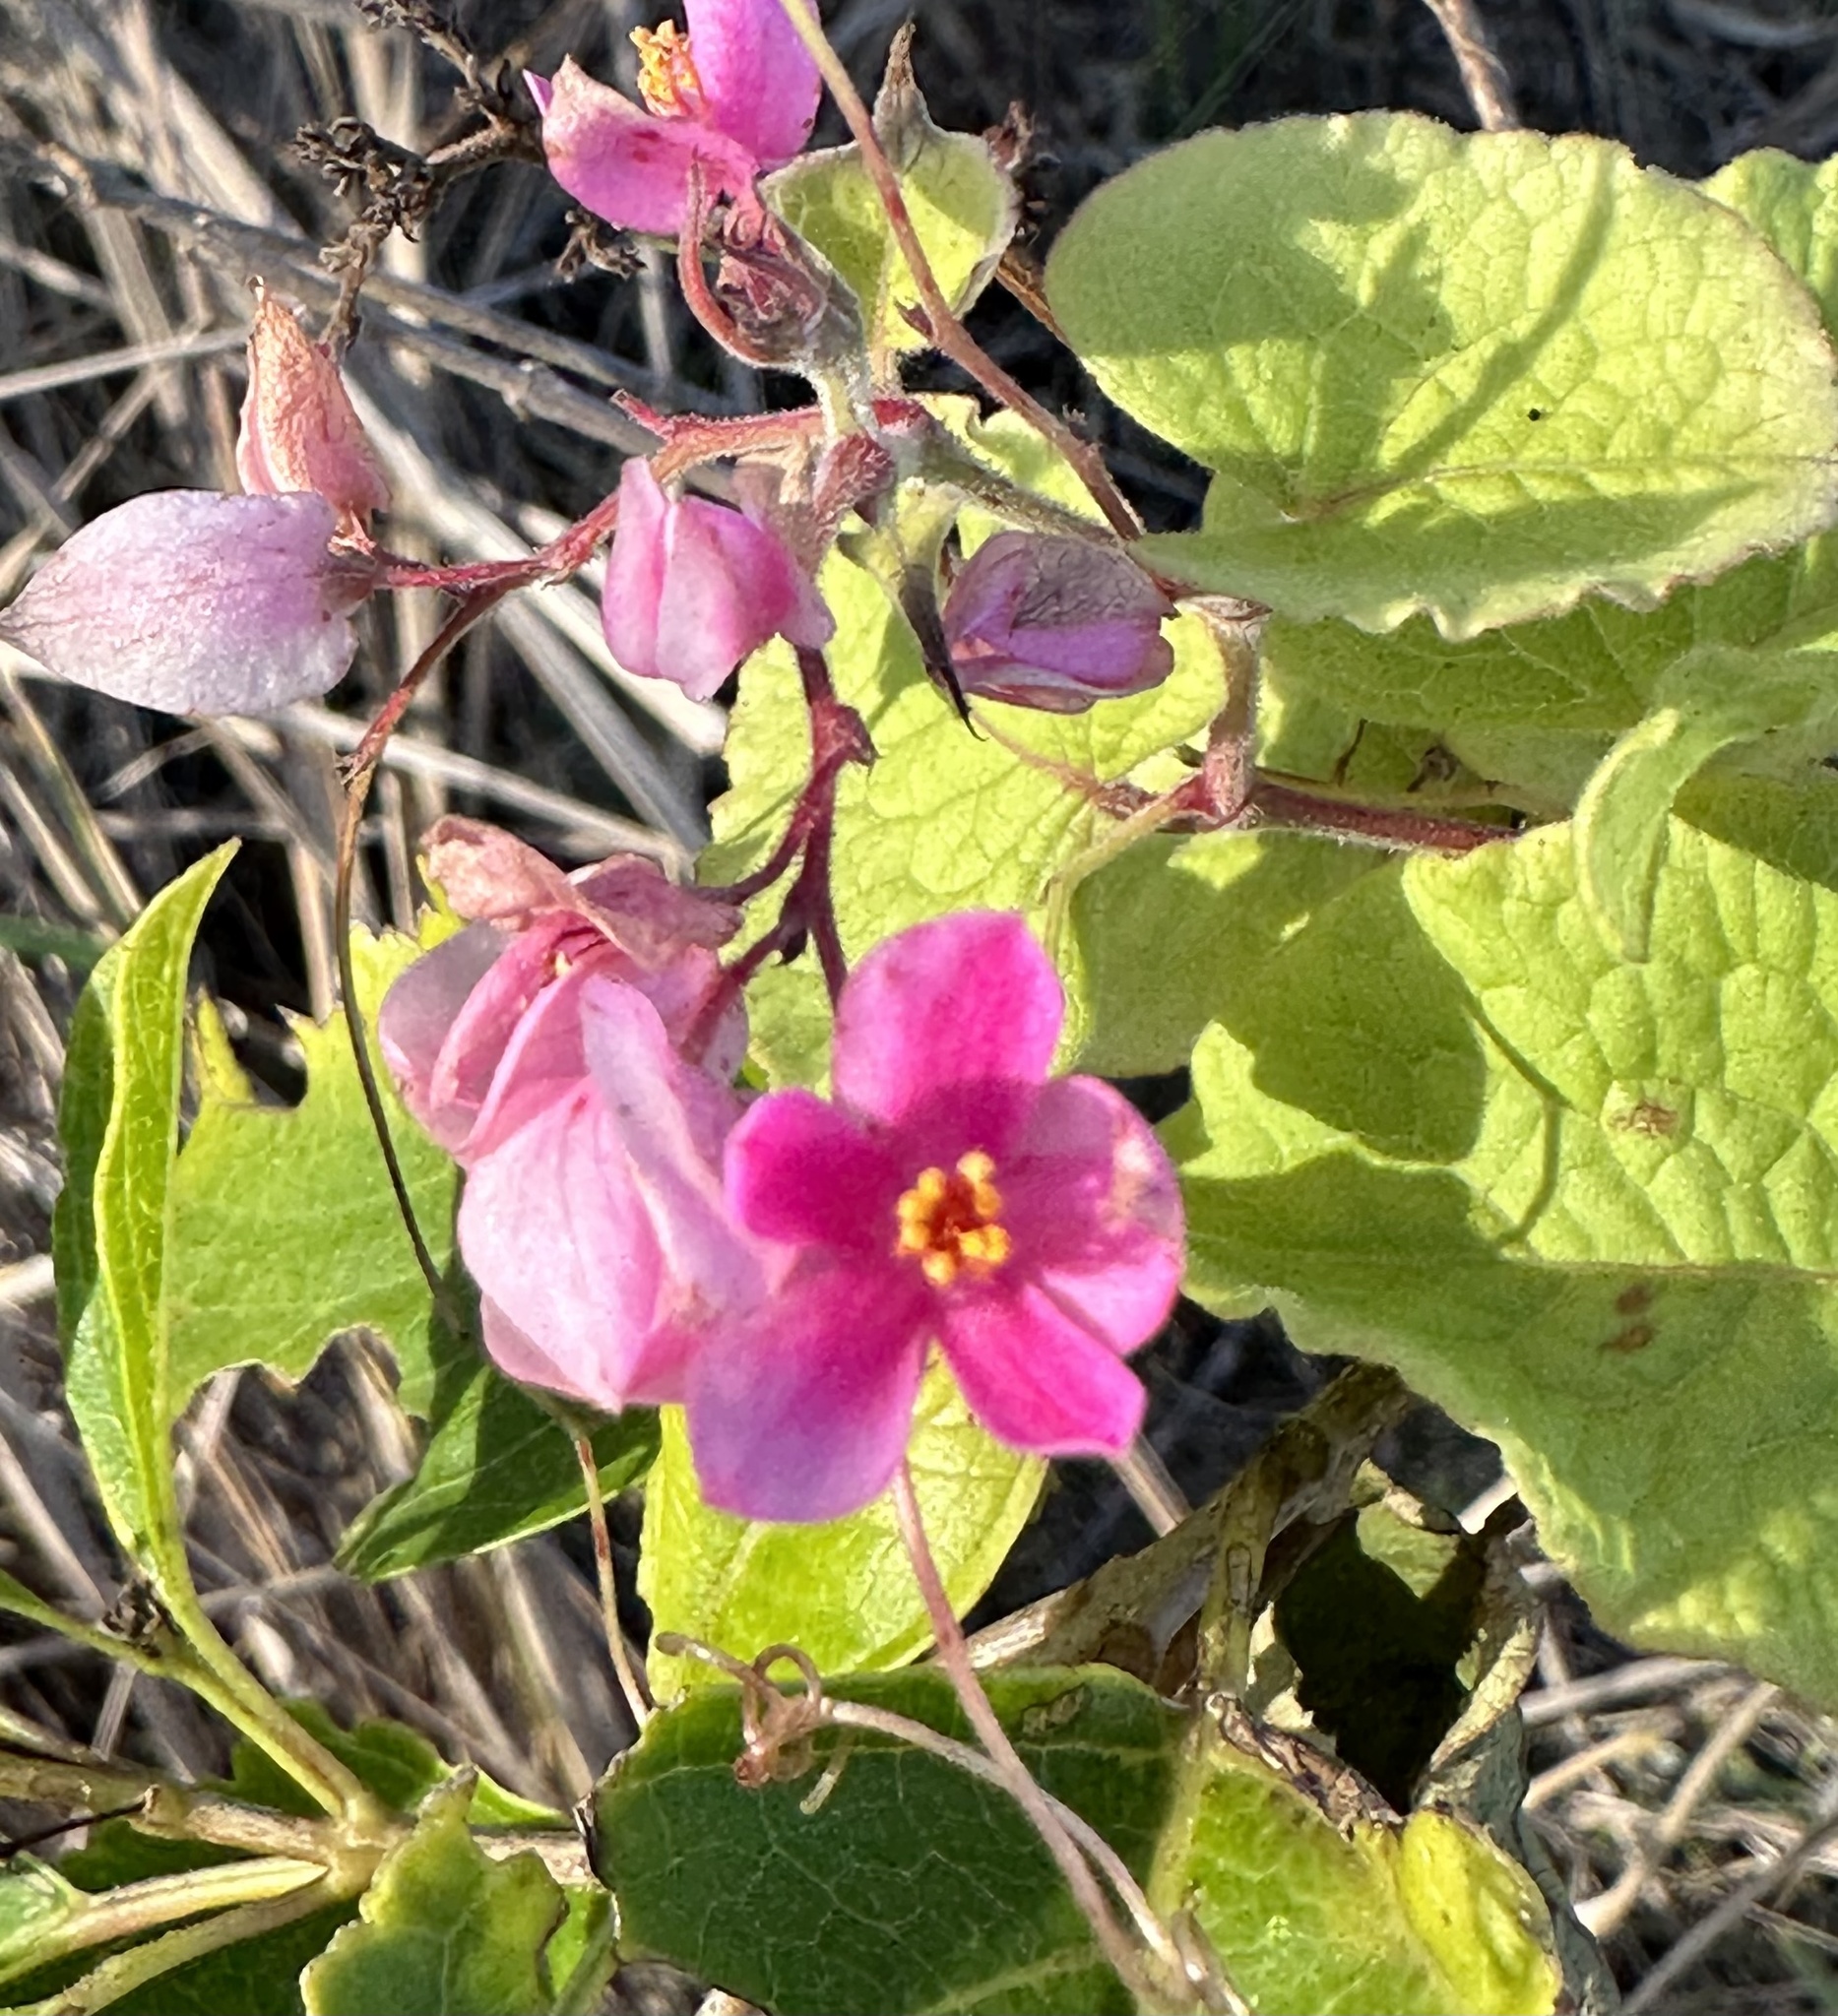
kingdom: Plantae
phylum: Tracheophyta
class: Magnoliopsida
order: Caryophyllales
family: Polygonaceae
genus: Antigonon
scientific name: Antigonon leptopus
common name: Coral vine
